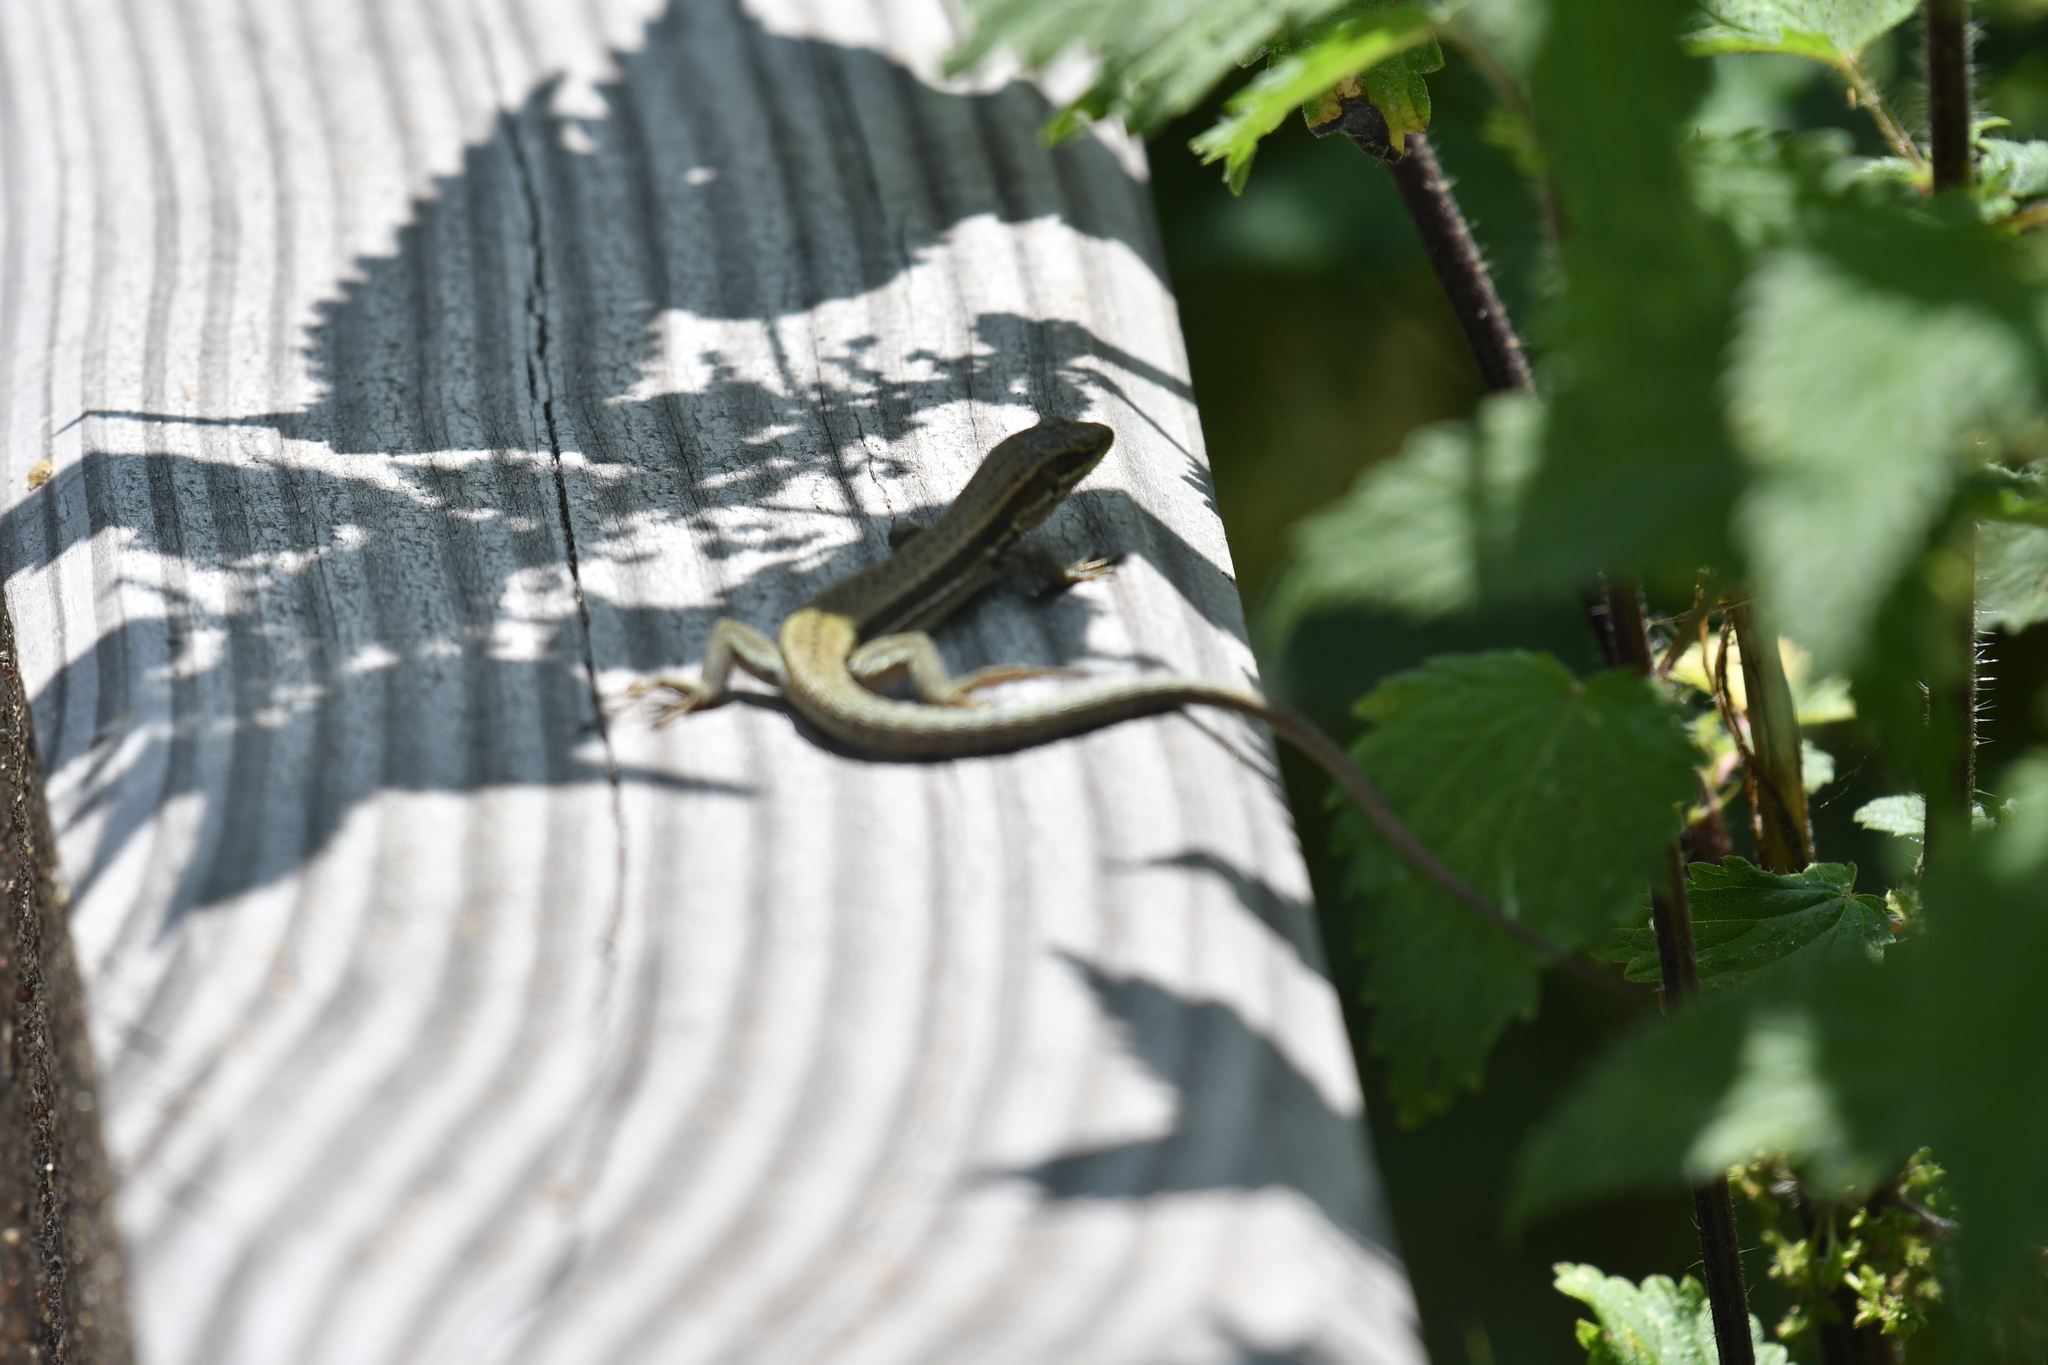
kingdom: Animalia
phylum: Chordata
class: Squamata
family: Lacertidae
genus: Podarcis
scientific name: Podarcis muralis
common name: Common wall lizard
